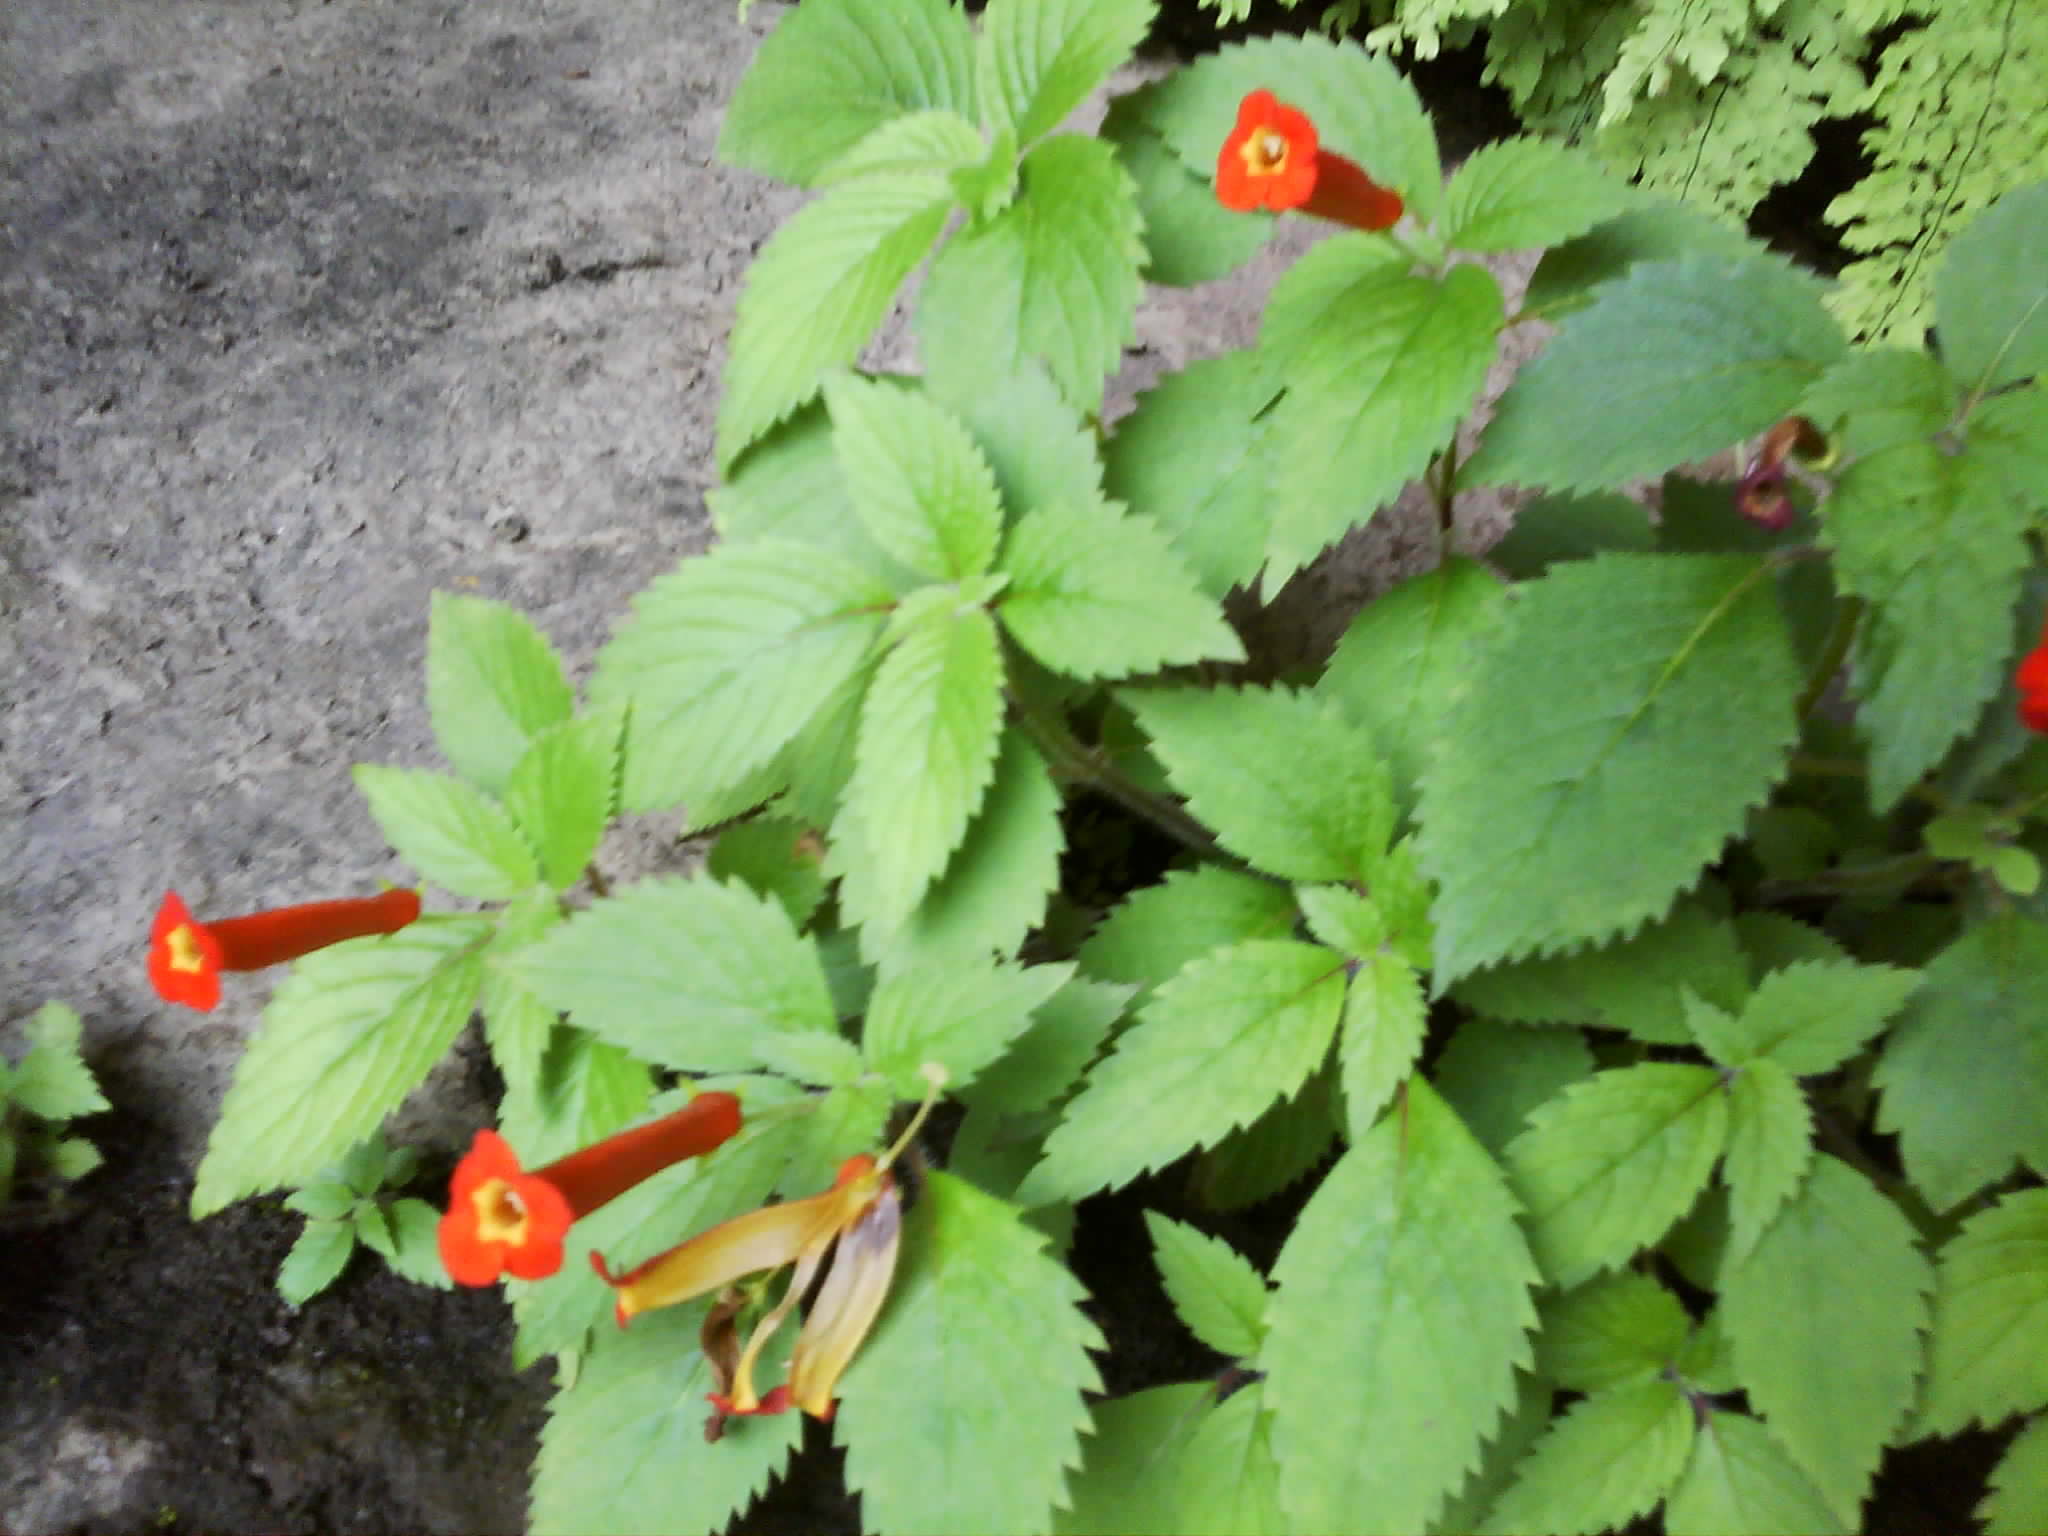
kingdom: Plantae
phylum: Tracheophyta
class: Magnoliopsida
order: Lamiales
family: Gesneriaceae
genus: Achimenes
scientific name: Achimenes heterophylla
